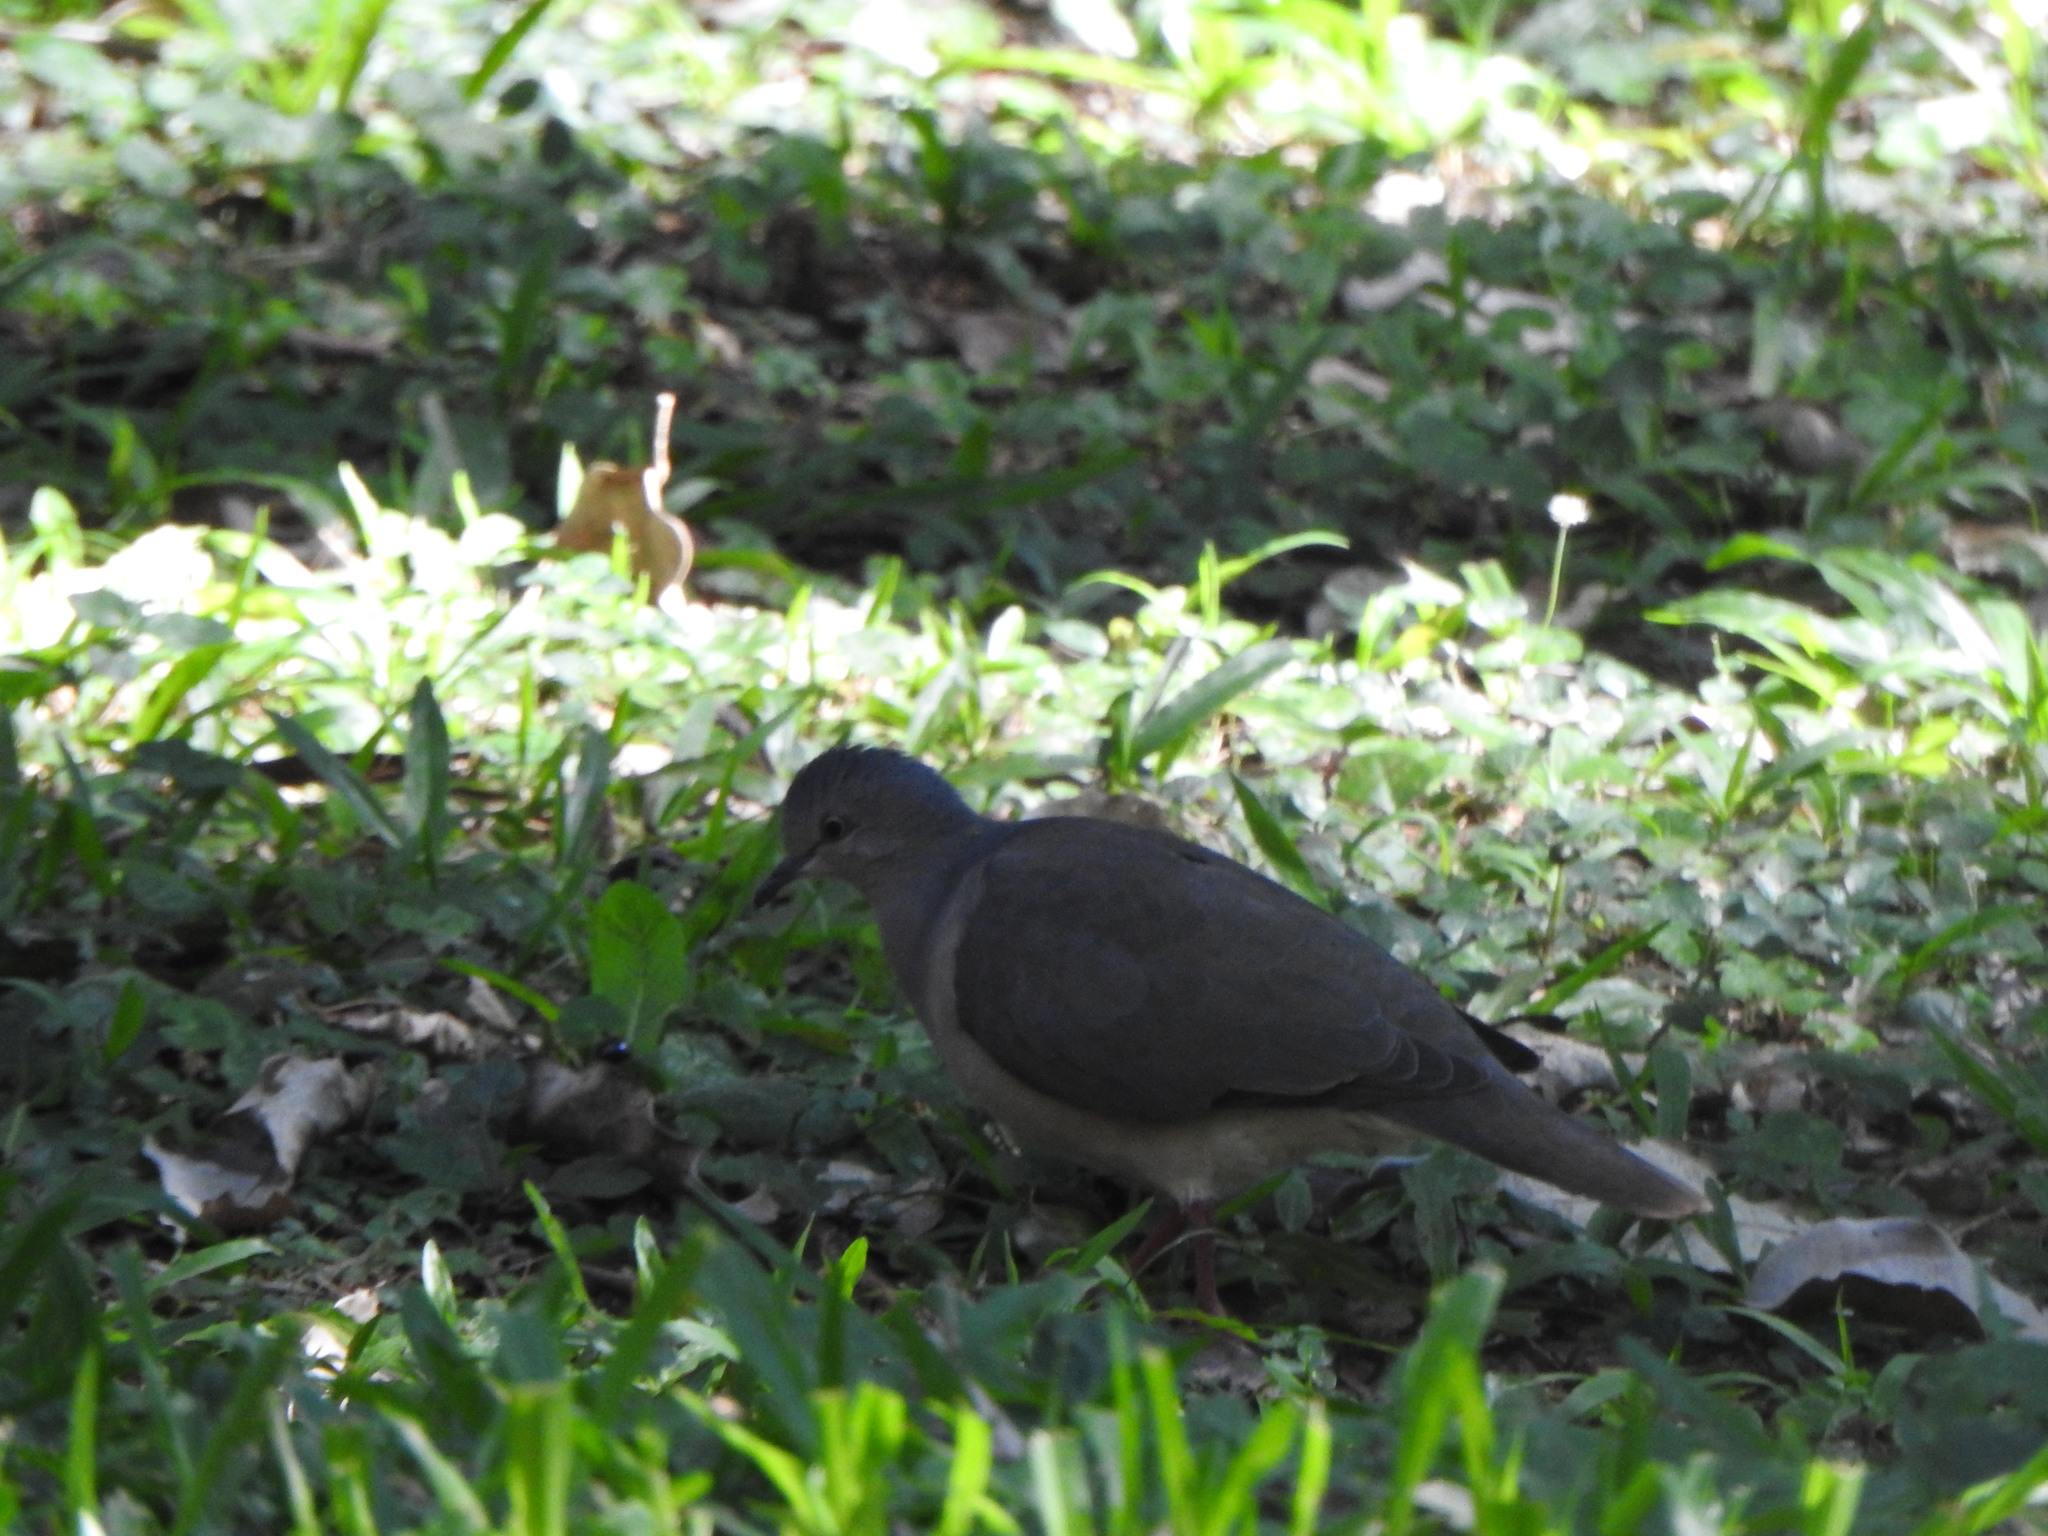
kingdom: Animalia
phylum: Chordata
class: Aves
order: Columbiformes
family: Columbidae
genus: Leptotila
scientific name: Leptotila verreauxi
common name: White-tipped dove
